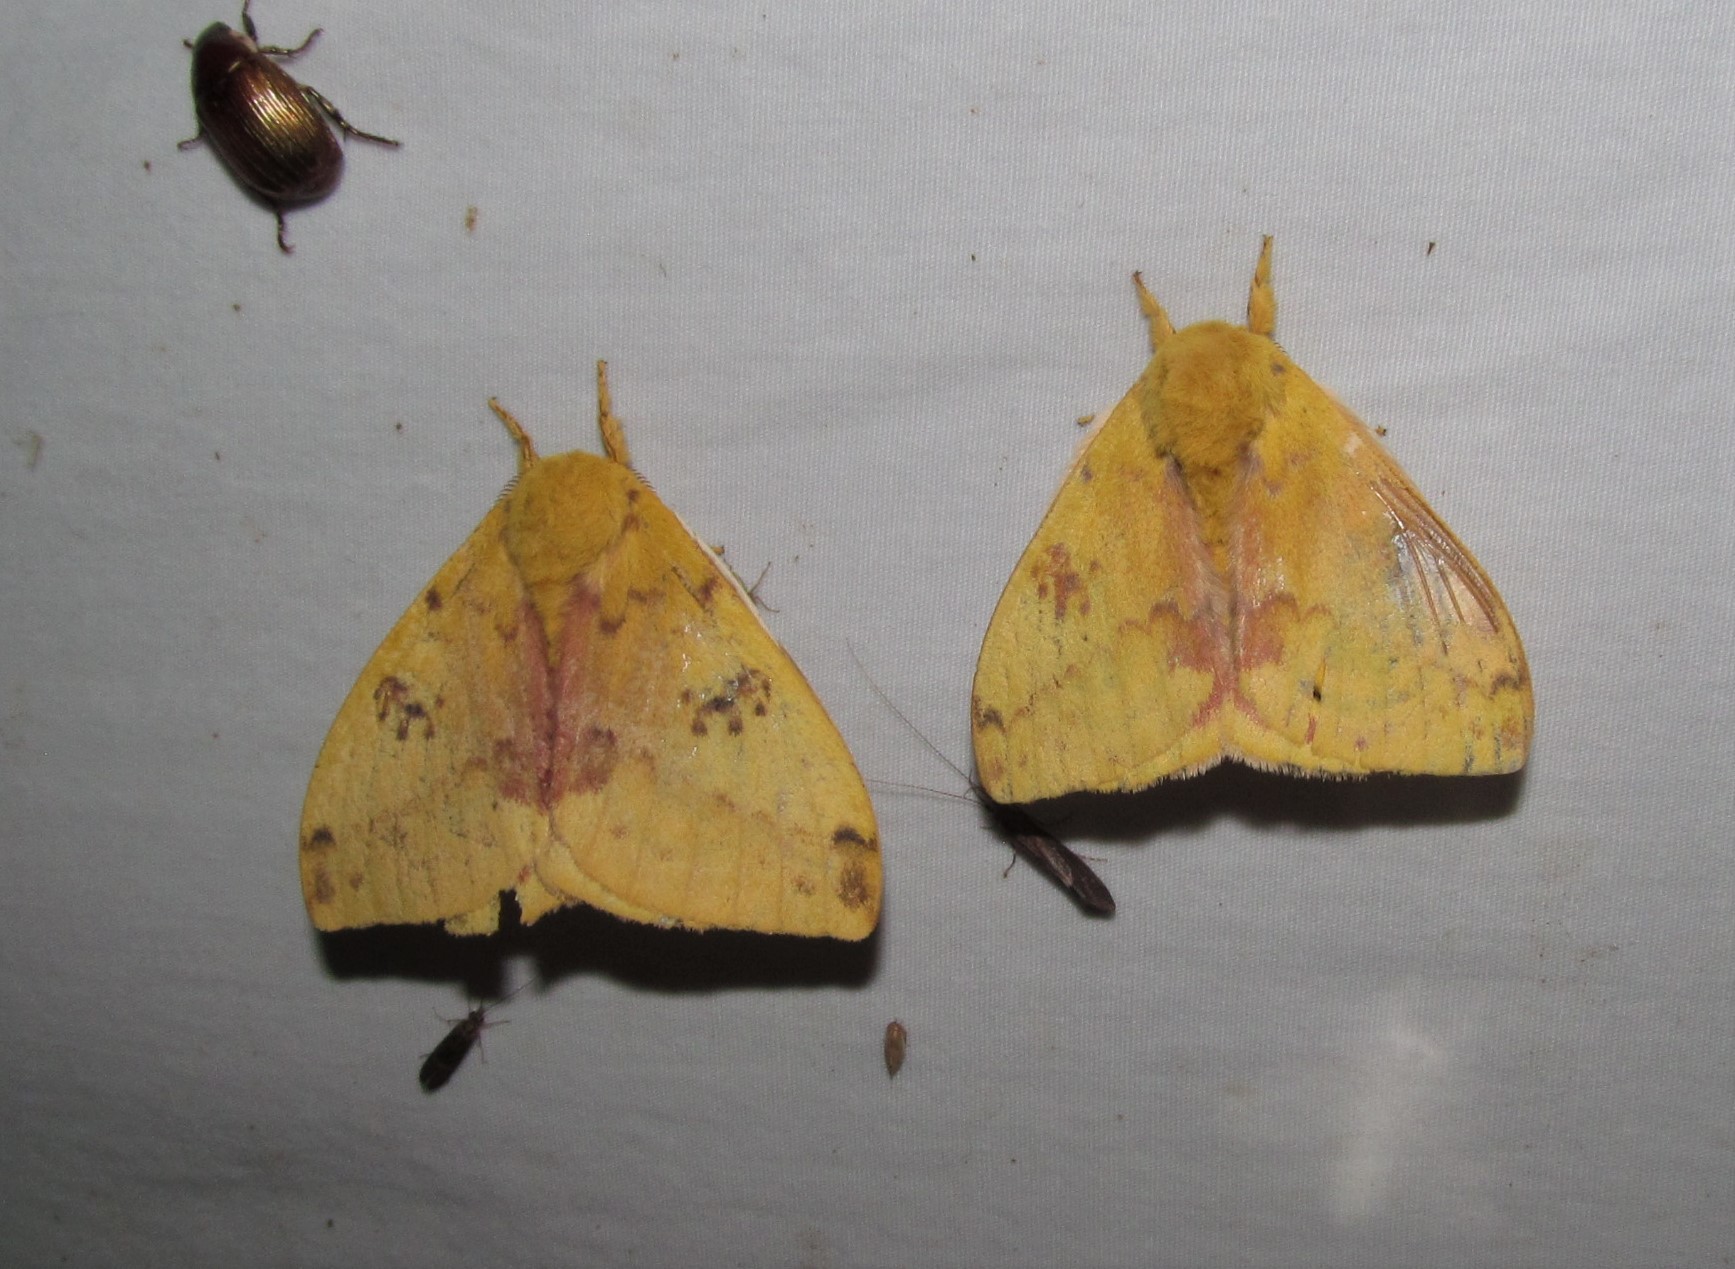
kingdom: Animalia
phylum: Arthropoda
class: Insecta
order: Lepidoptera
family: Saturniidae
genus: Automeris
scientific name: Automeris io
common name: Io moth
